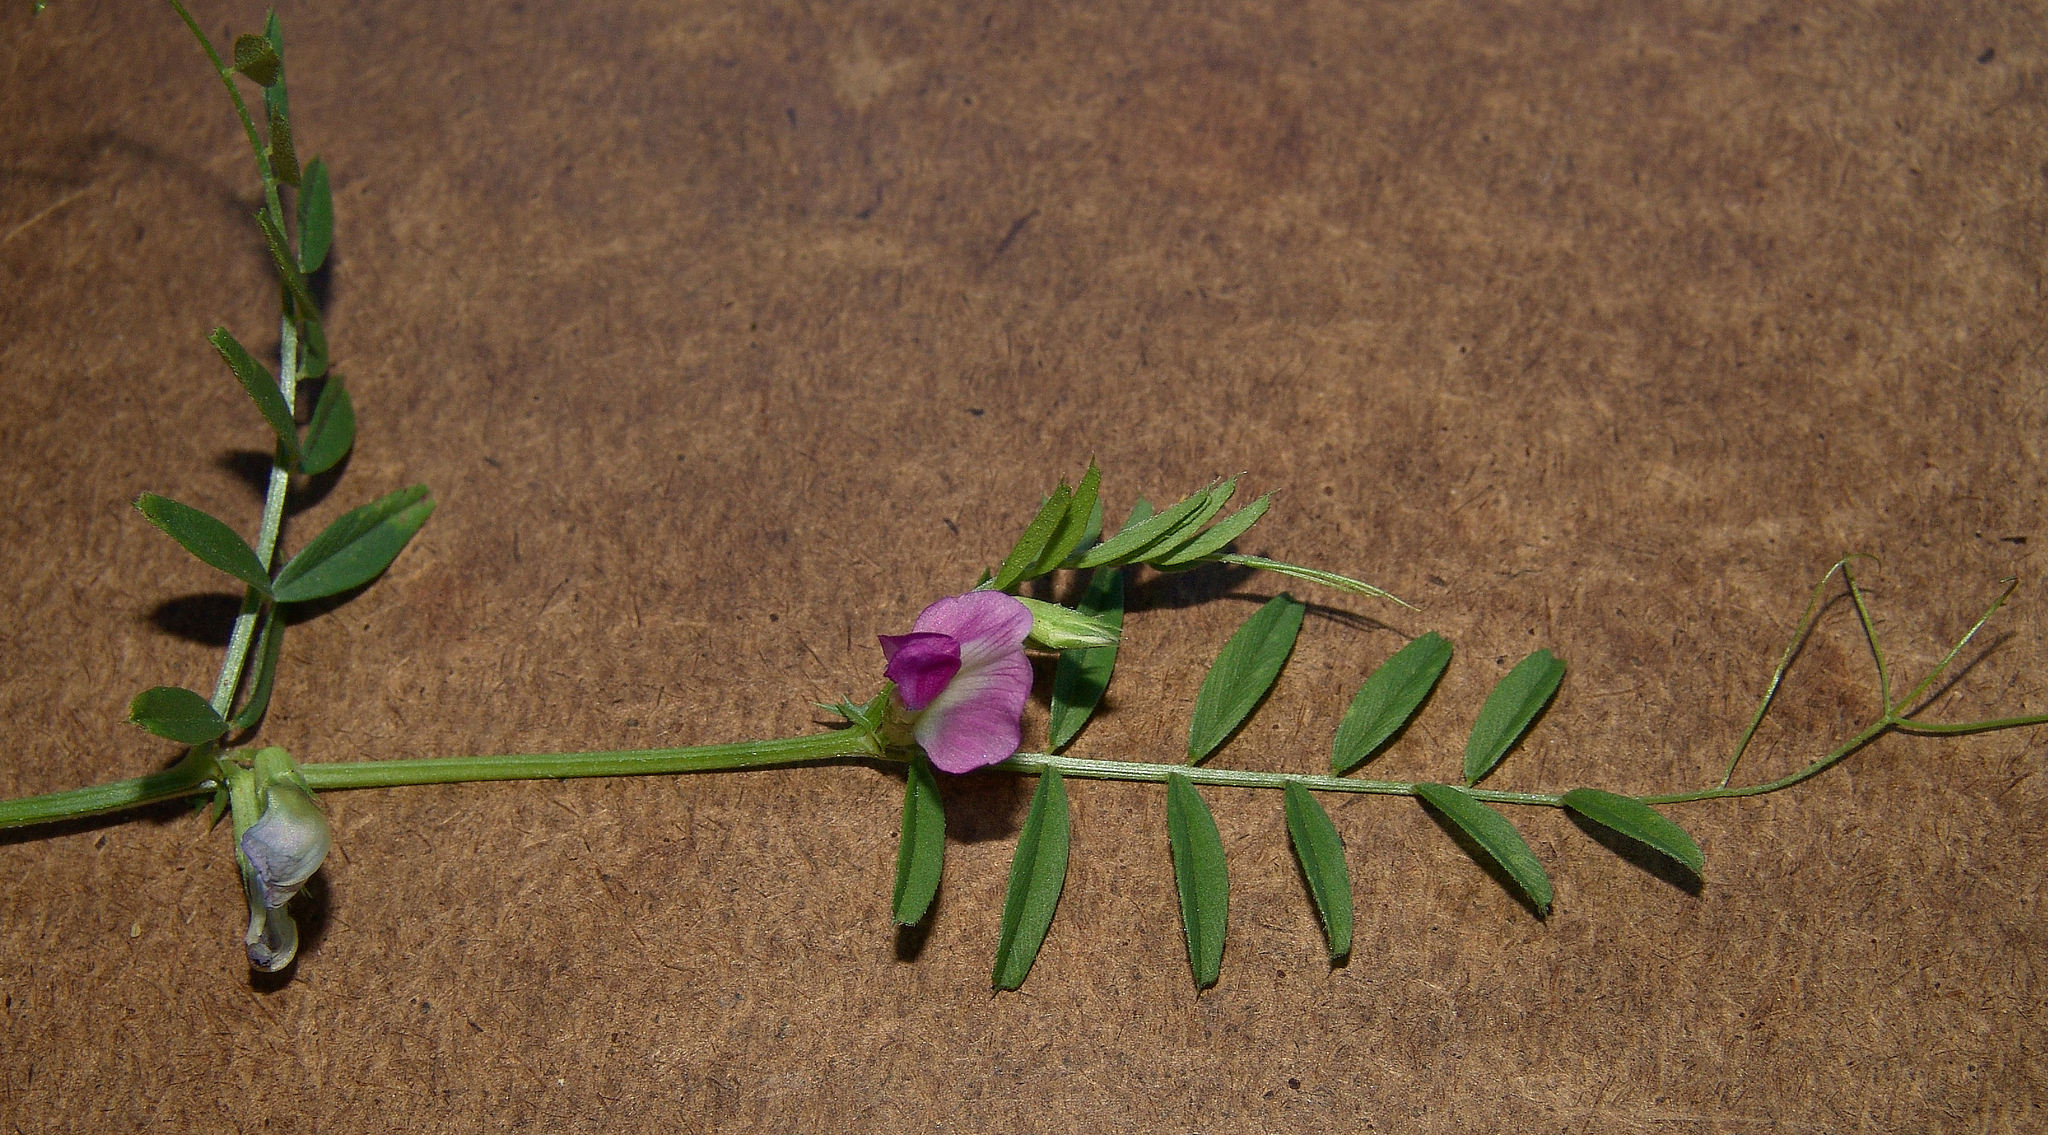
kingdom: Plantae
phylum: Tracheophyta
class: Magnoliopsida
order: Fabales
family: Fabaceae
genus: Vicia
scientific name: Vicia sativa
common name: Garden vetch
